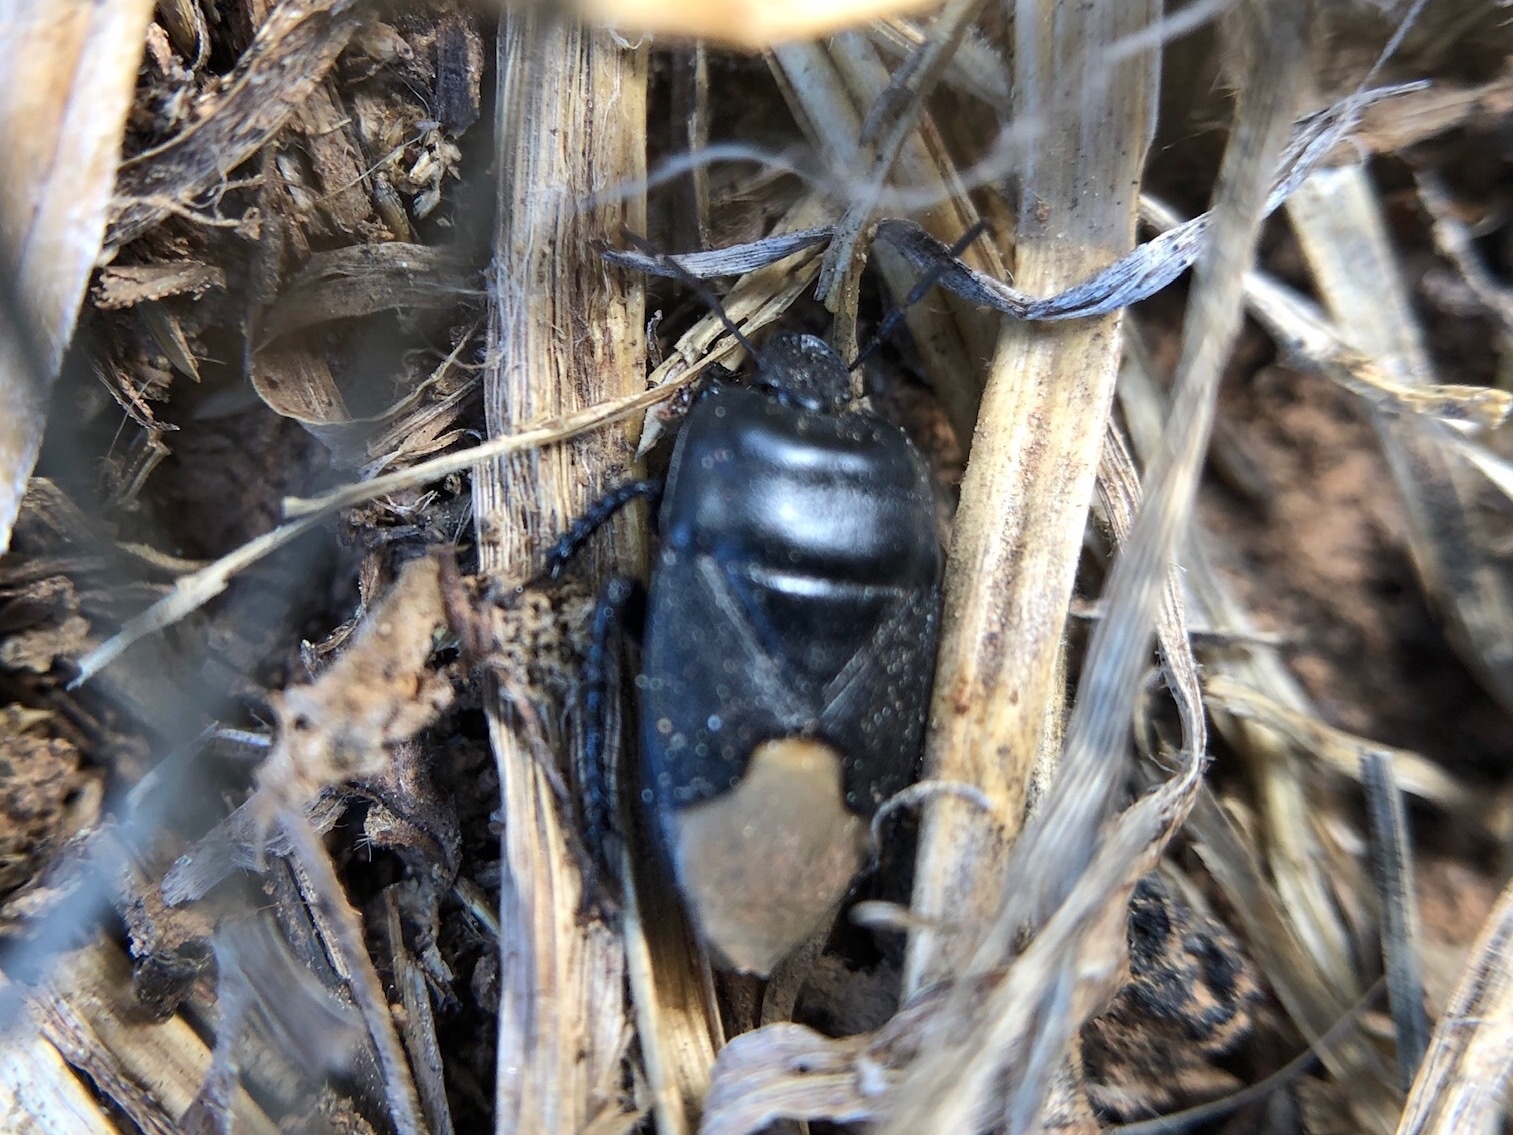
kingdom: Animalia
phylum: Arthropoda
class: Insecta
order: Hemiptera
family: Cydnidae
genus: Cydnus
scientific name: Cydnus aterrimus
